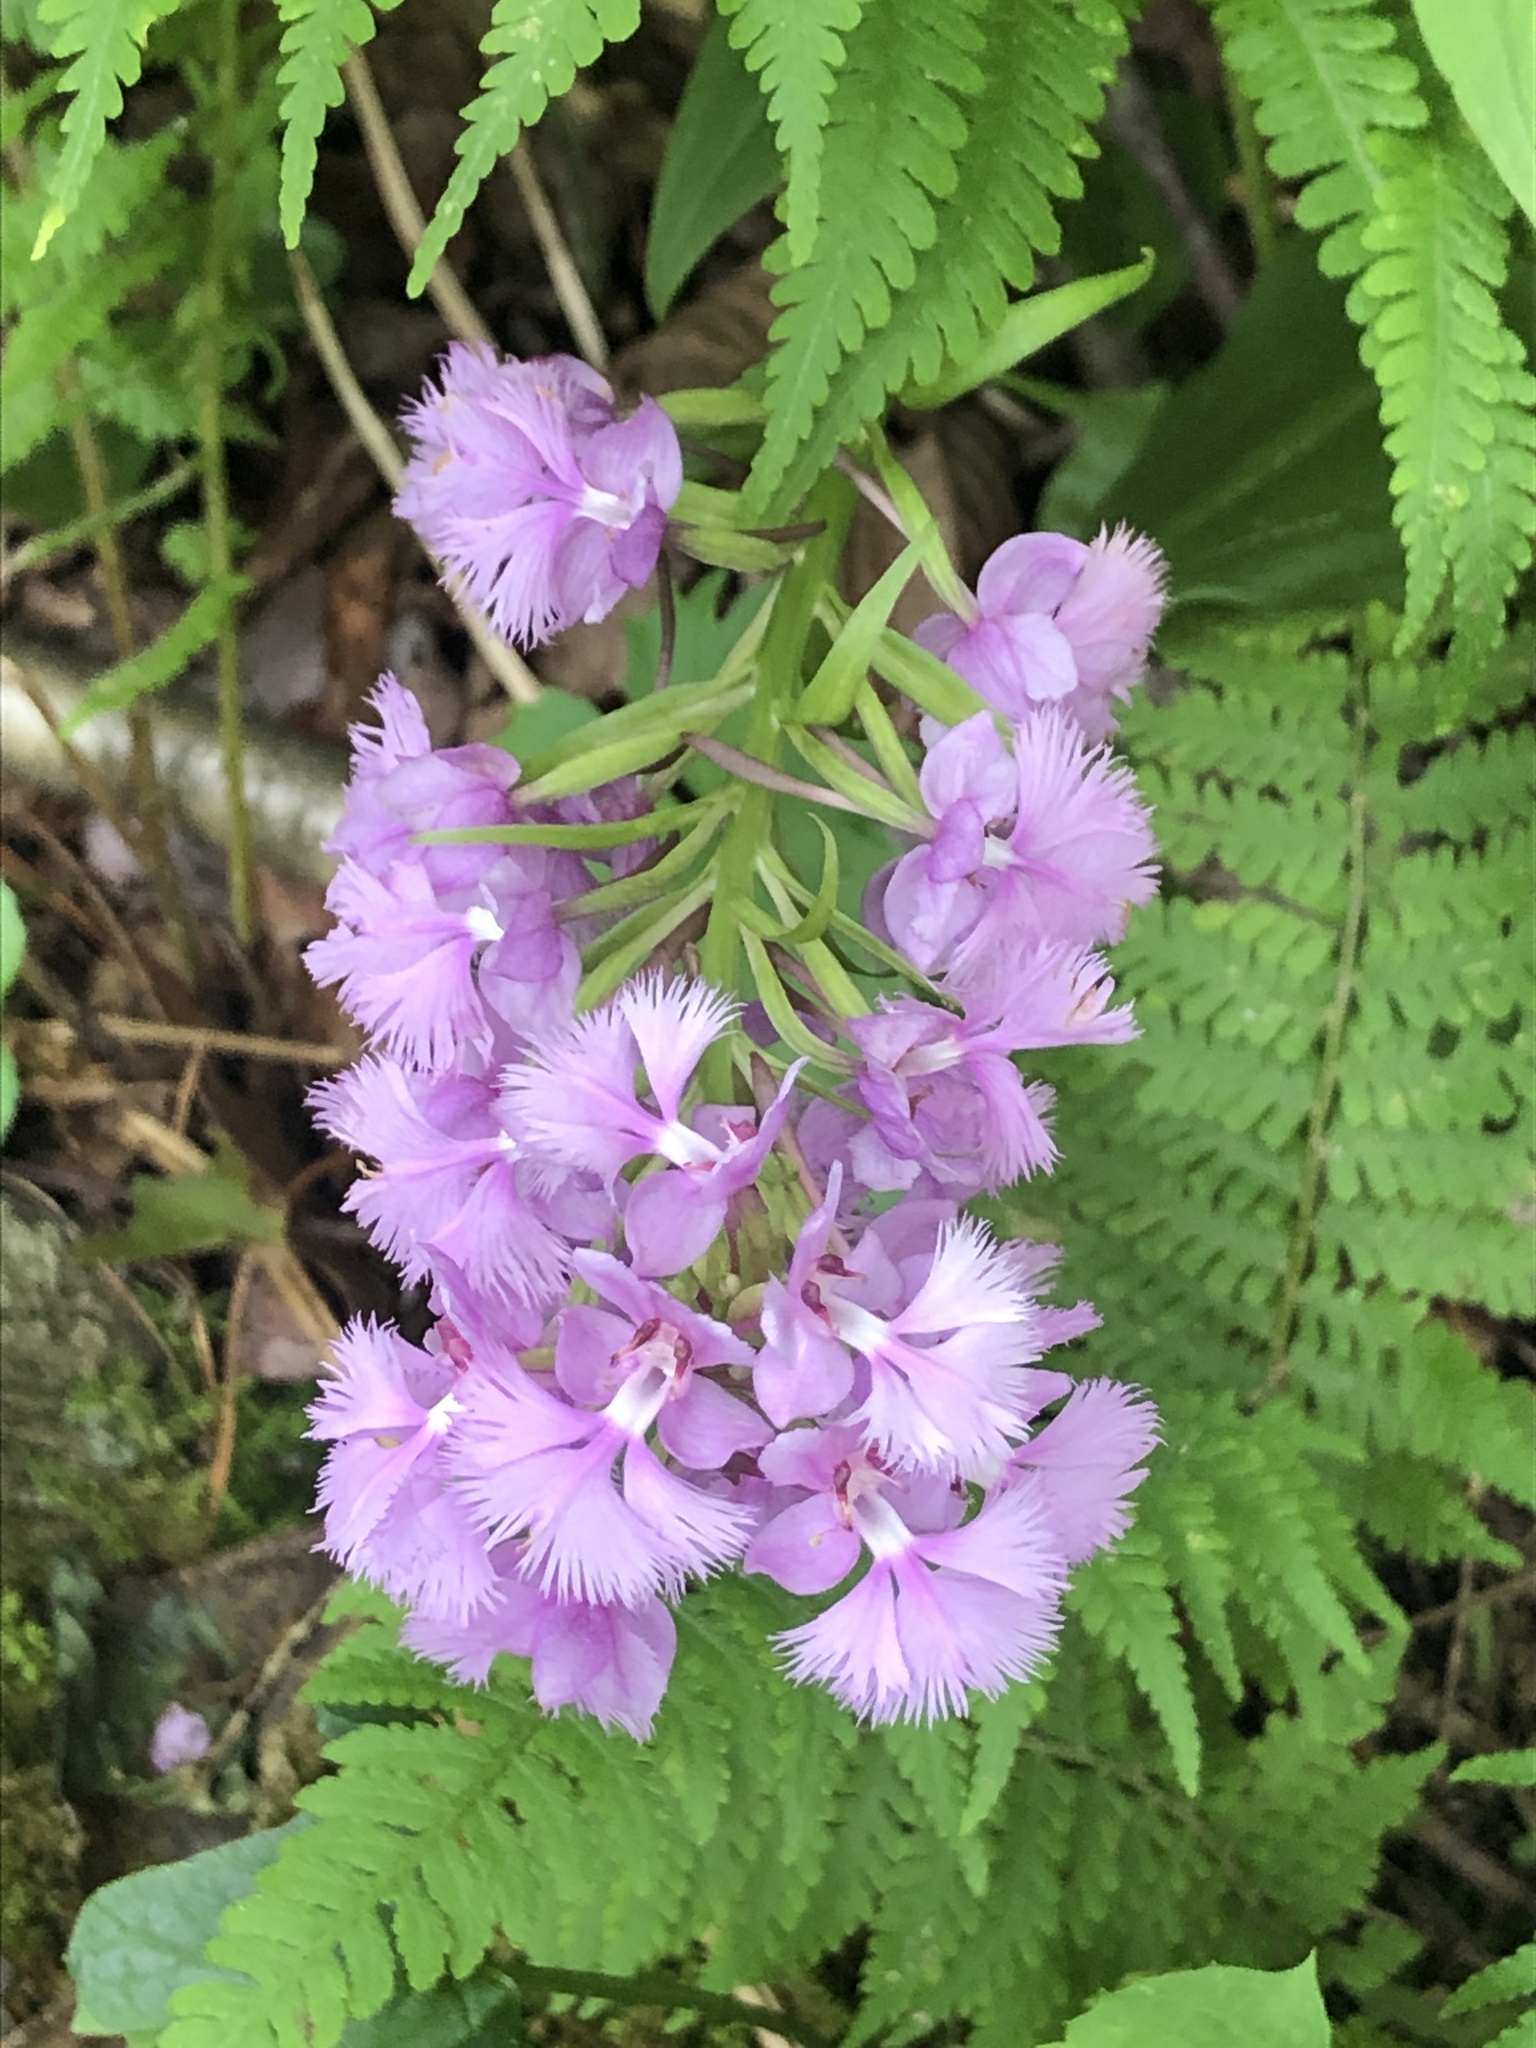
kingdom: Plantae
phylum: Tracheophyta
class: Liliopsida
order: Asparagales
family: Orchidaceae
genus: Platanthera
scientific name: Platanthera grandiflora
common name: Greater purple fringed orchid
